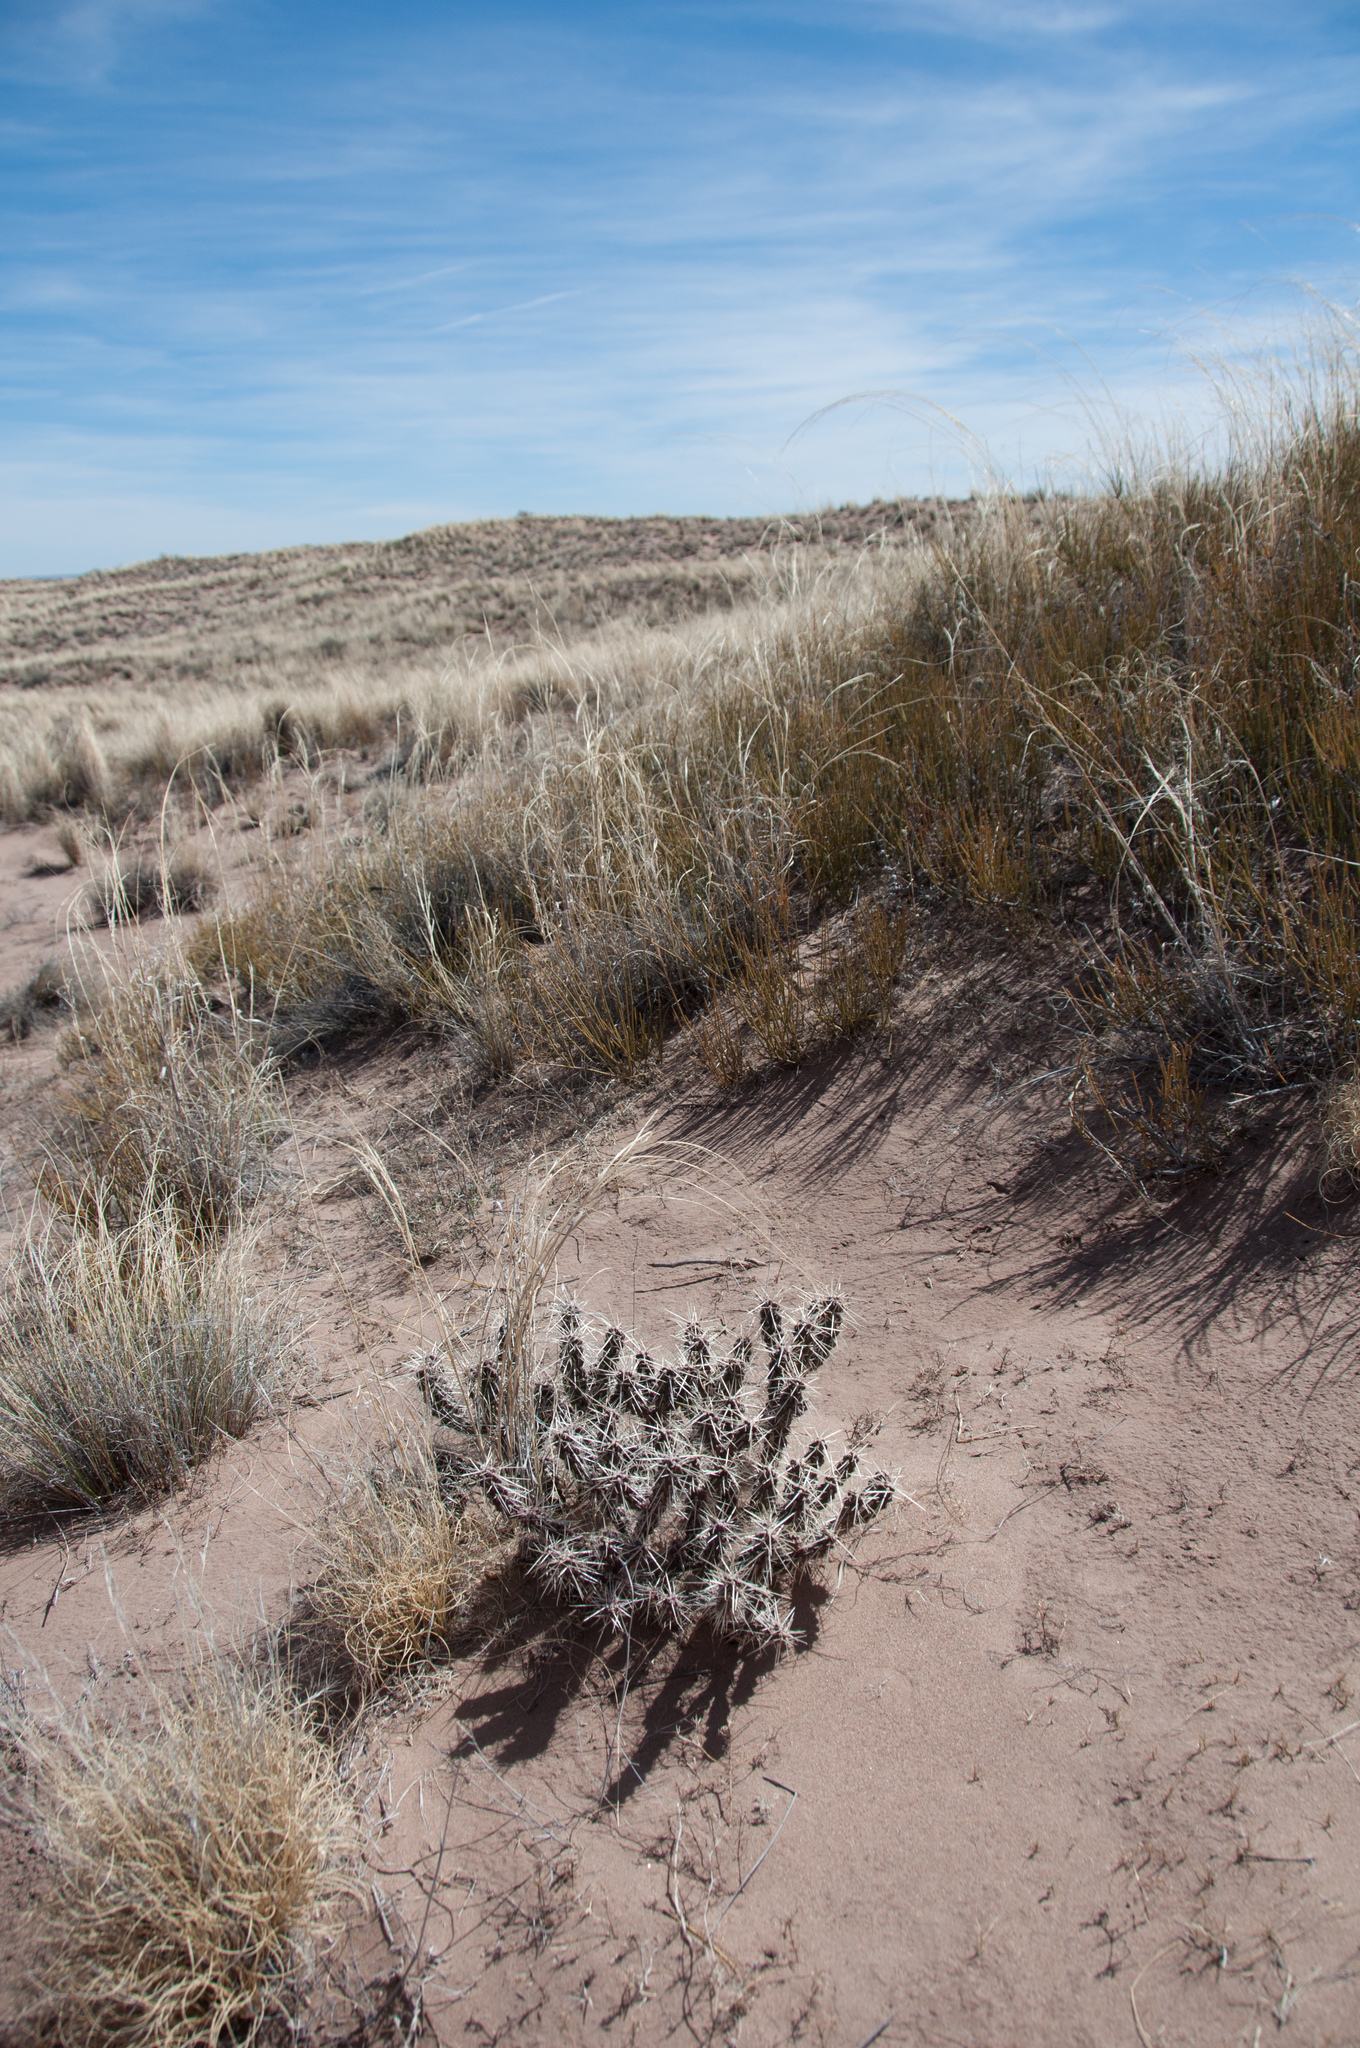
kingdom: Plantae
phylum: Tracheophyta
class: Magnoliopsida
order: Caryophyllales
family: Cactaceae
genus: Cylindropuntia
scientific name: Cylindropuntia whipplei
